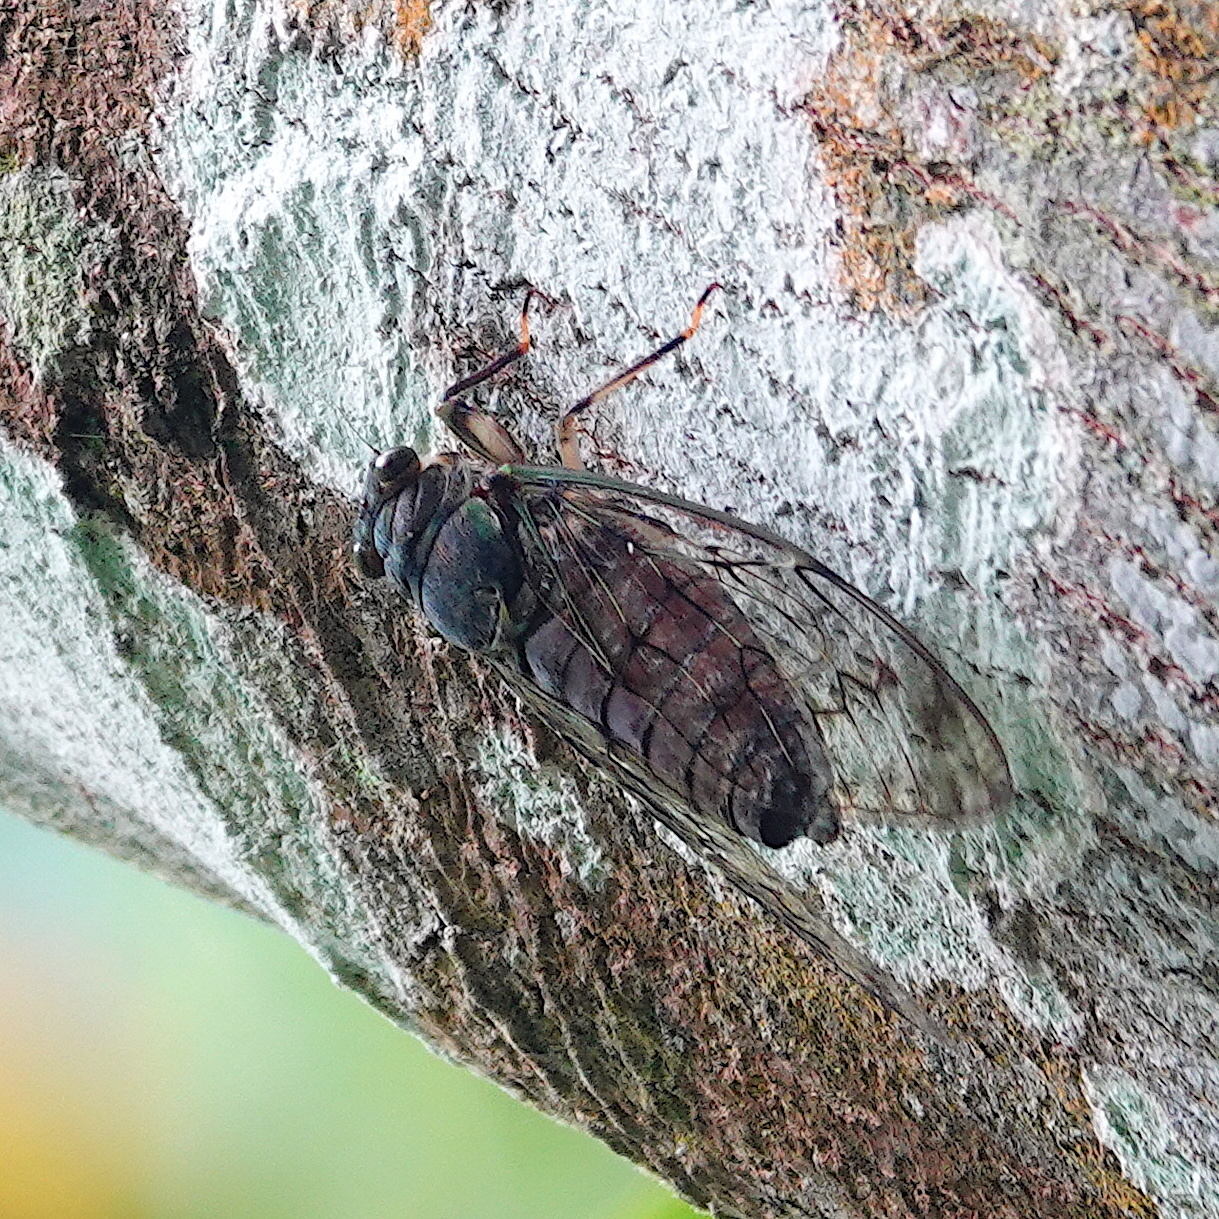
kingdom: Animalia
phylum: Arthropoda
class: Insecta
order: Hemiptera
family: Cicadidae
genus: Pomponia
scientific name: Pomponia yayeyamana
